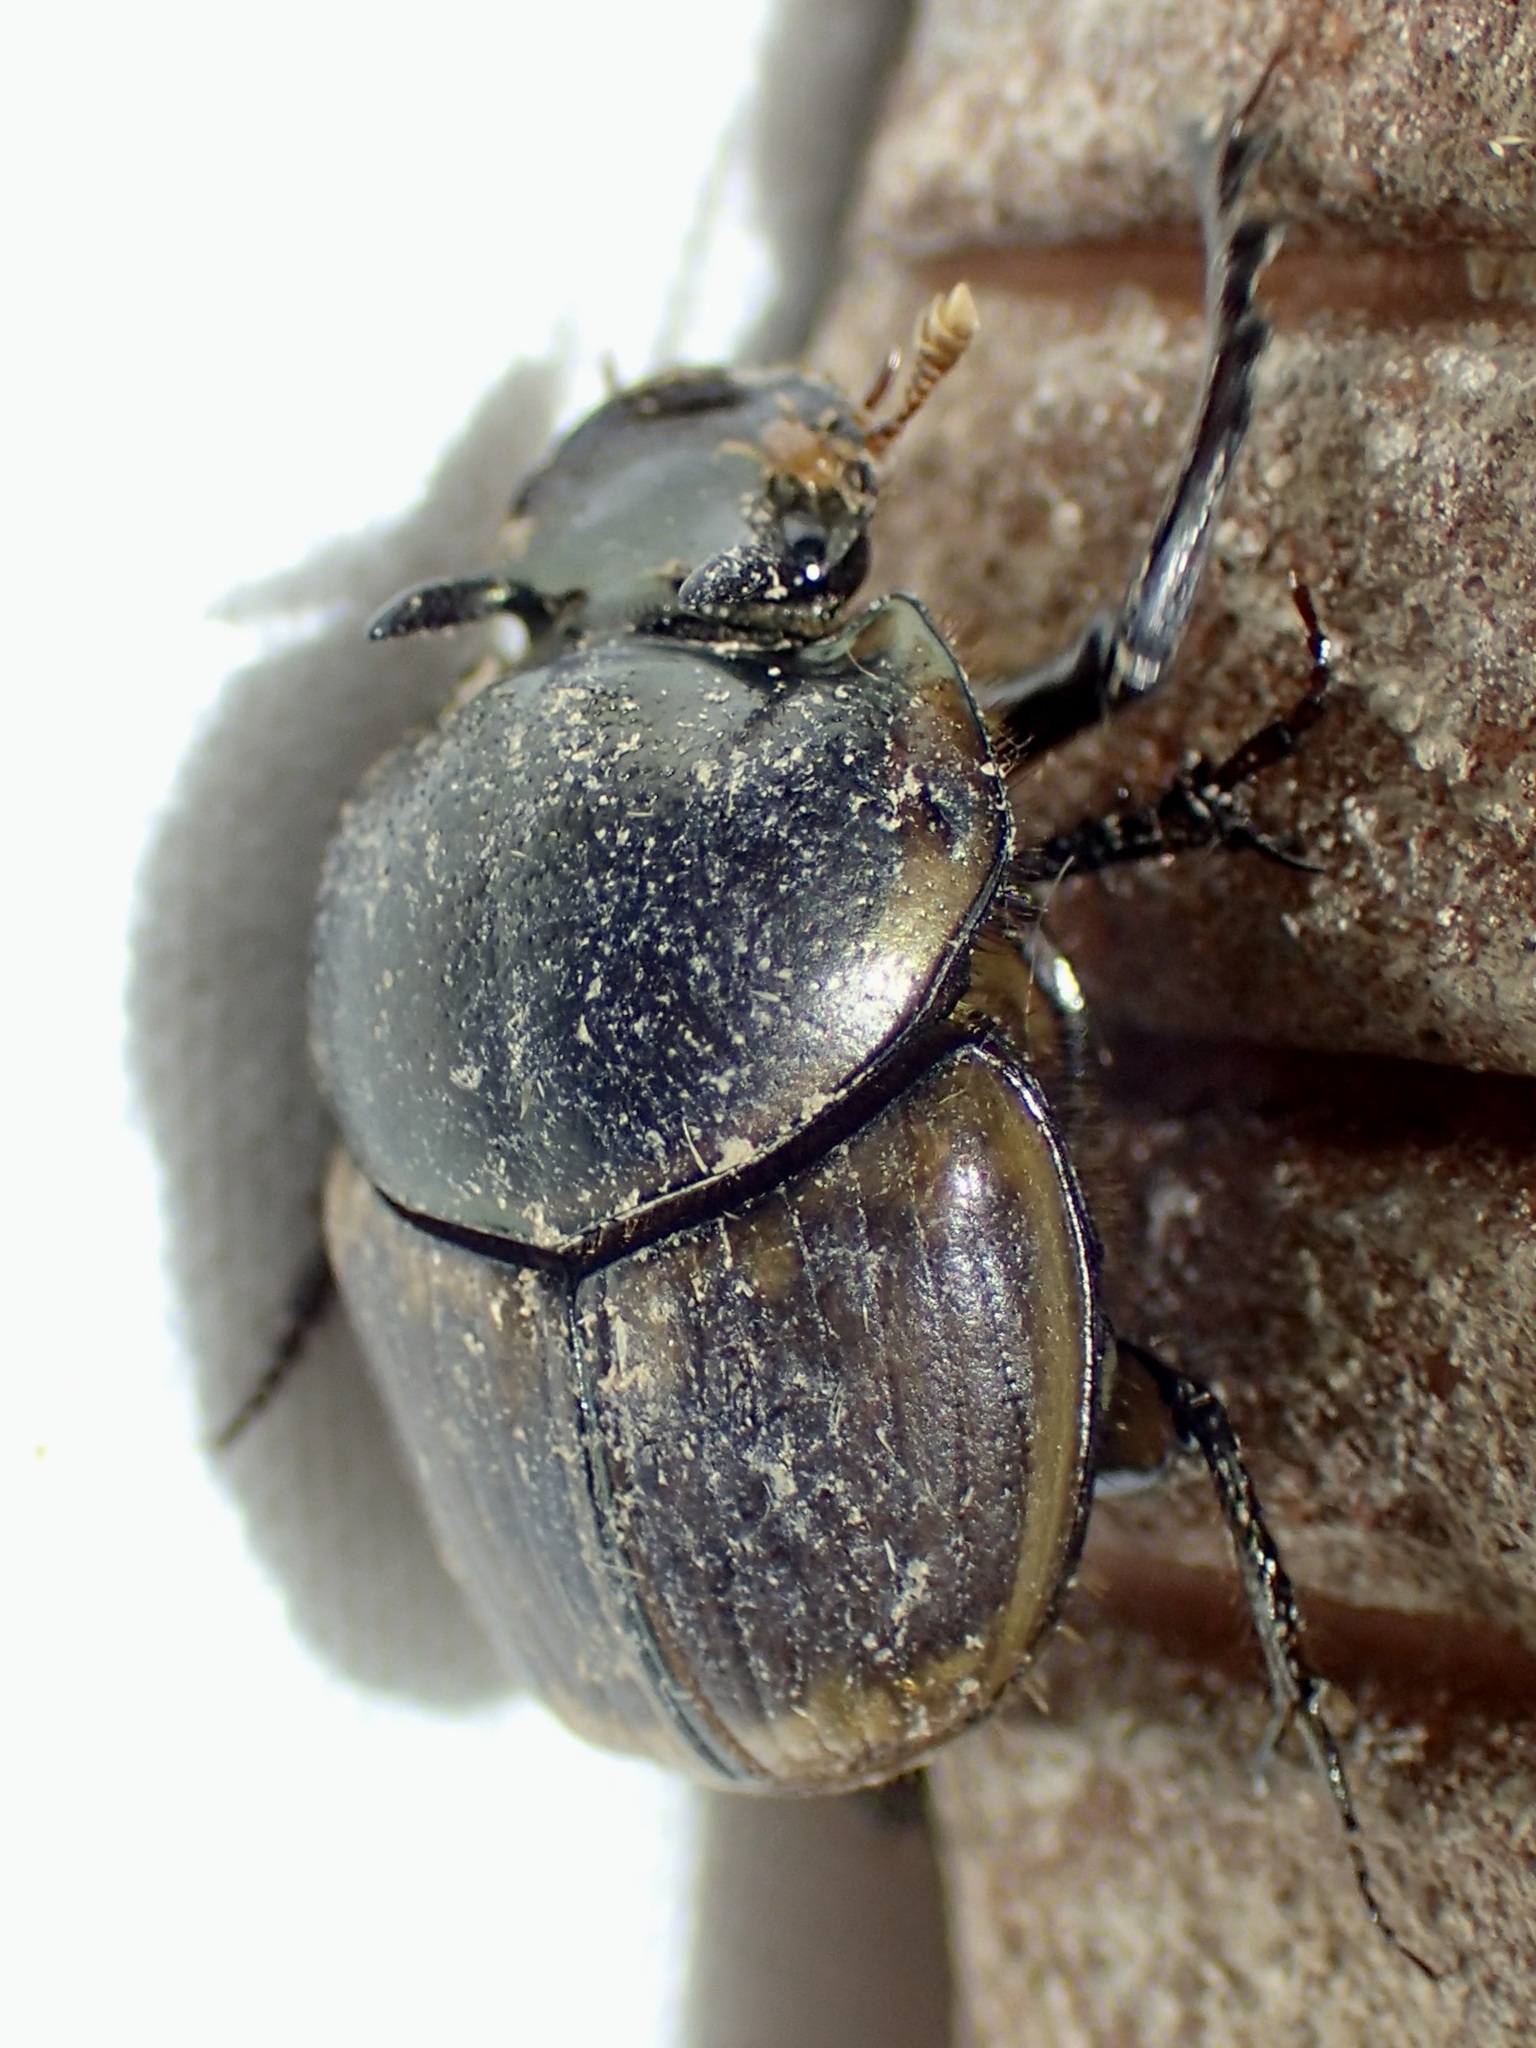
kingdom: Animalia
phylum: Arthropoda
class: Insecta
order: Coleoptera
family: Scarabaeidae
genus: Digitonthophagus
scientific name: Digitonthophagus gazella
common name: Brown dung beetle
